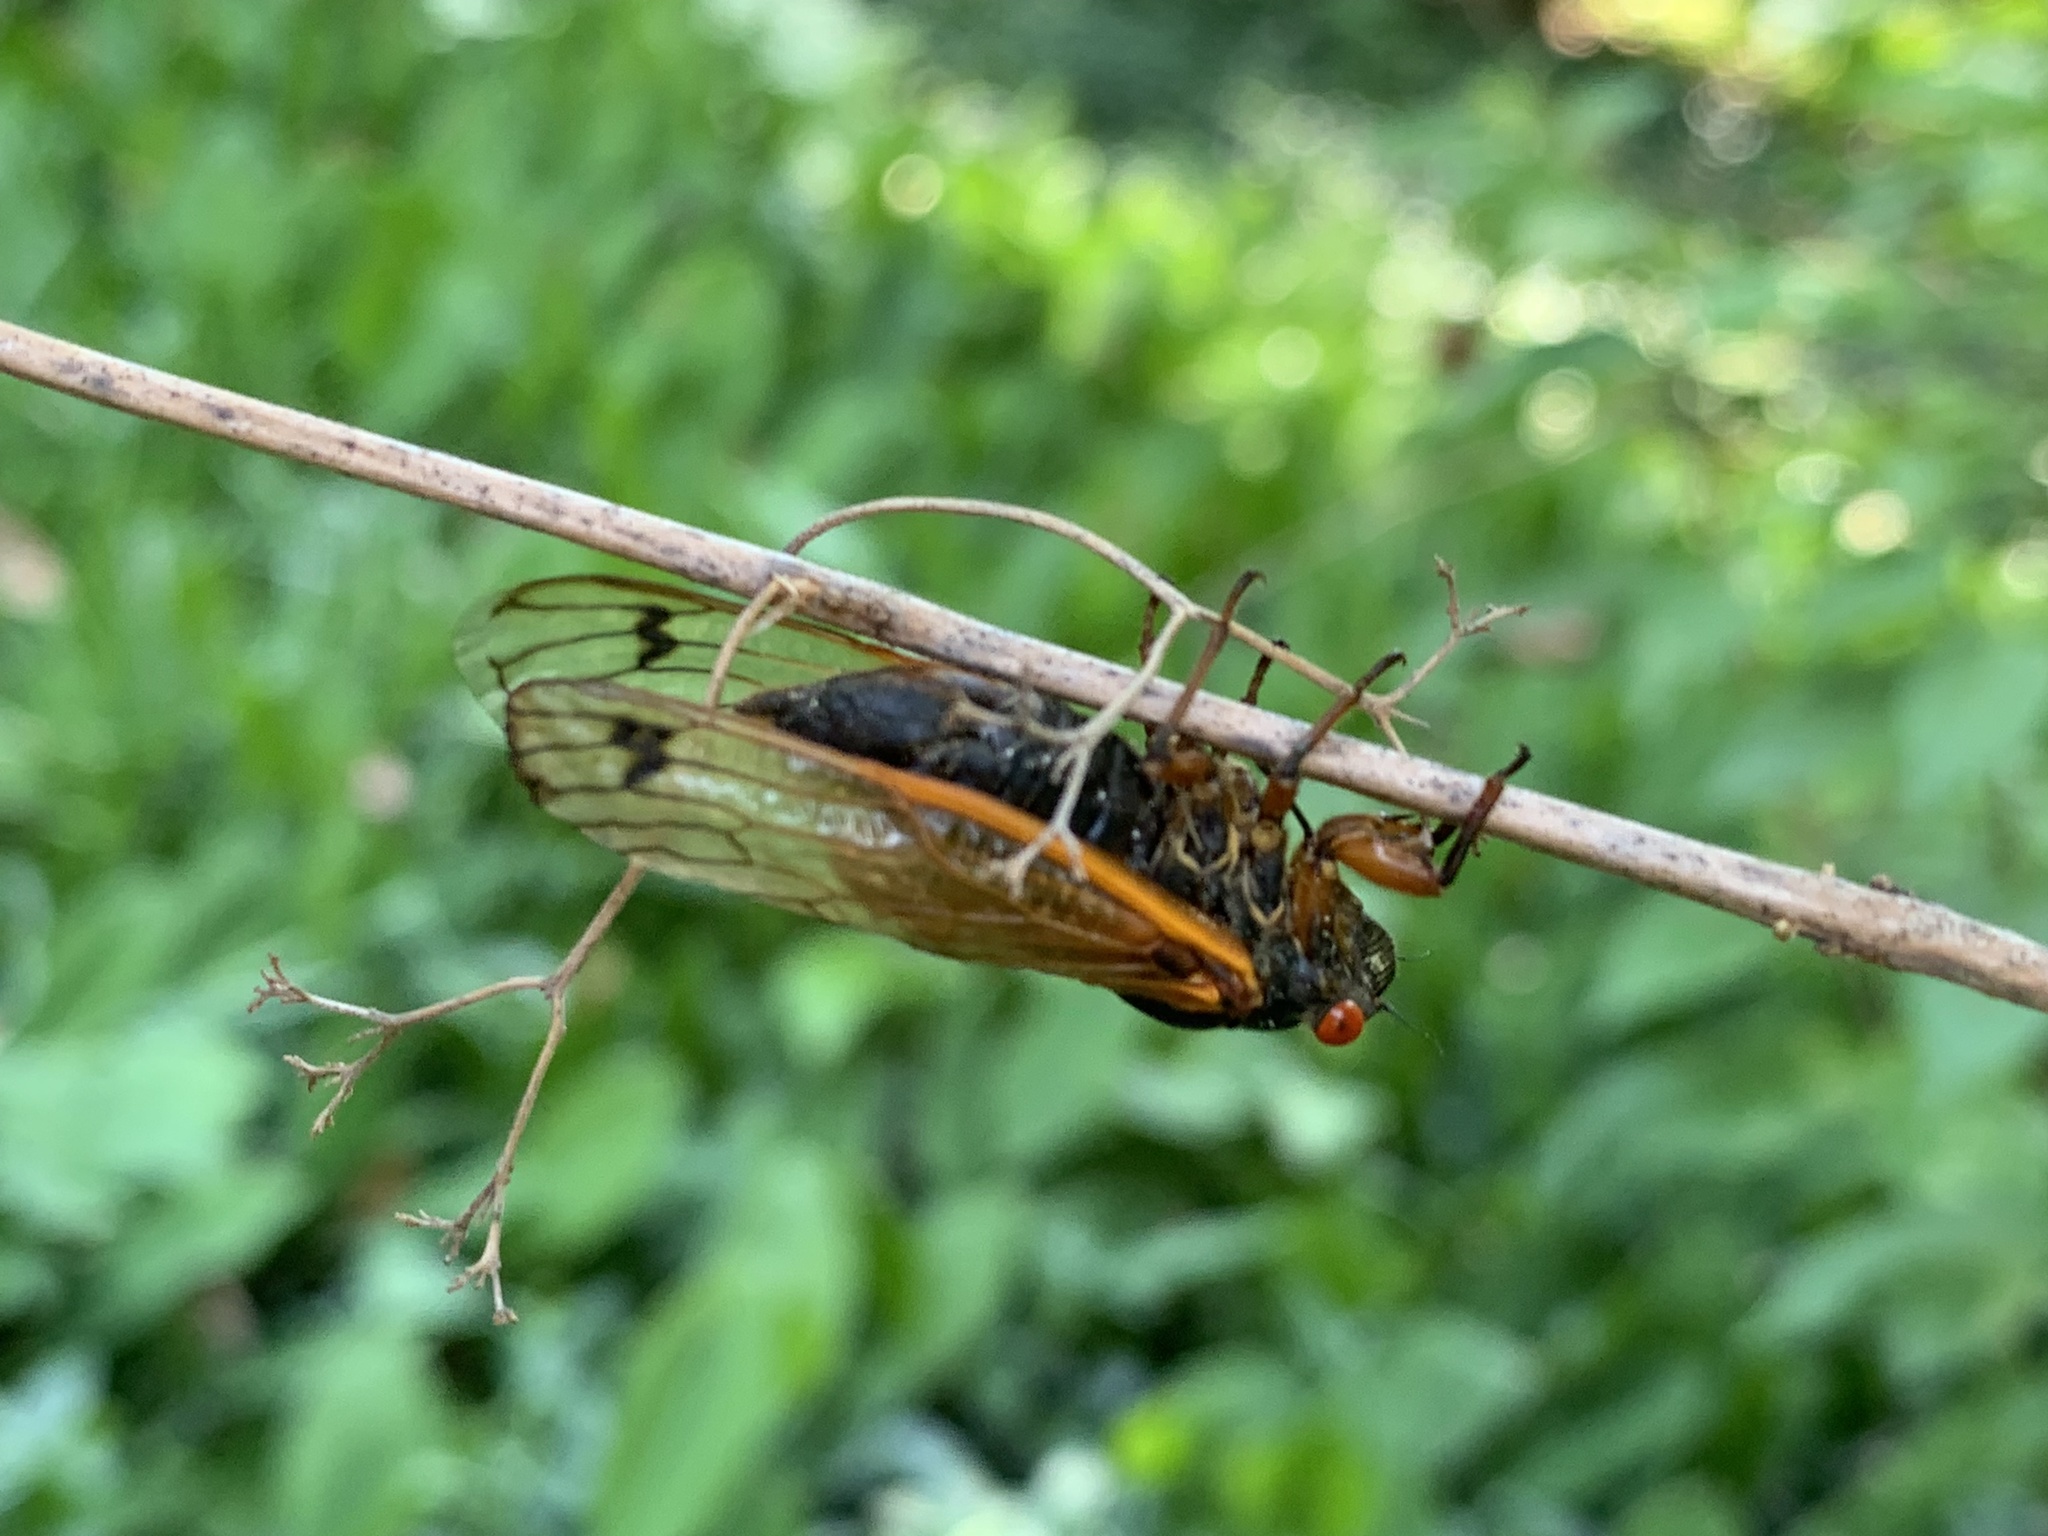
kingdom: Animalia
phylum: Arthropoda
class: Insecta
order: Hemiptera
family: Cicadidae
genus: Magicicada
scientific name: Magicicada cassini
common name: Cassin's 17-year cicada
